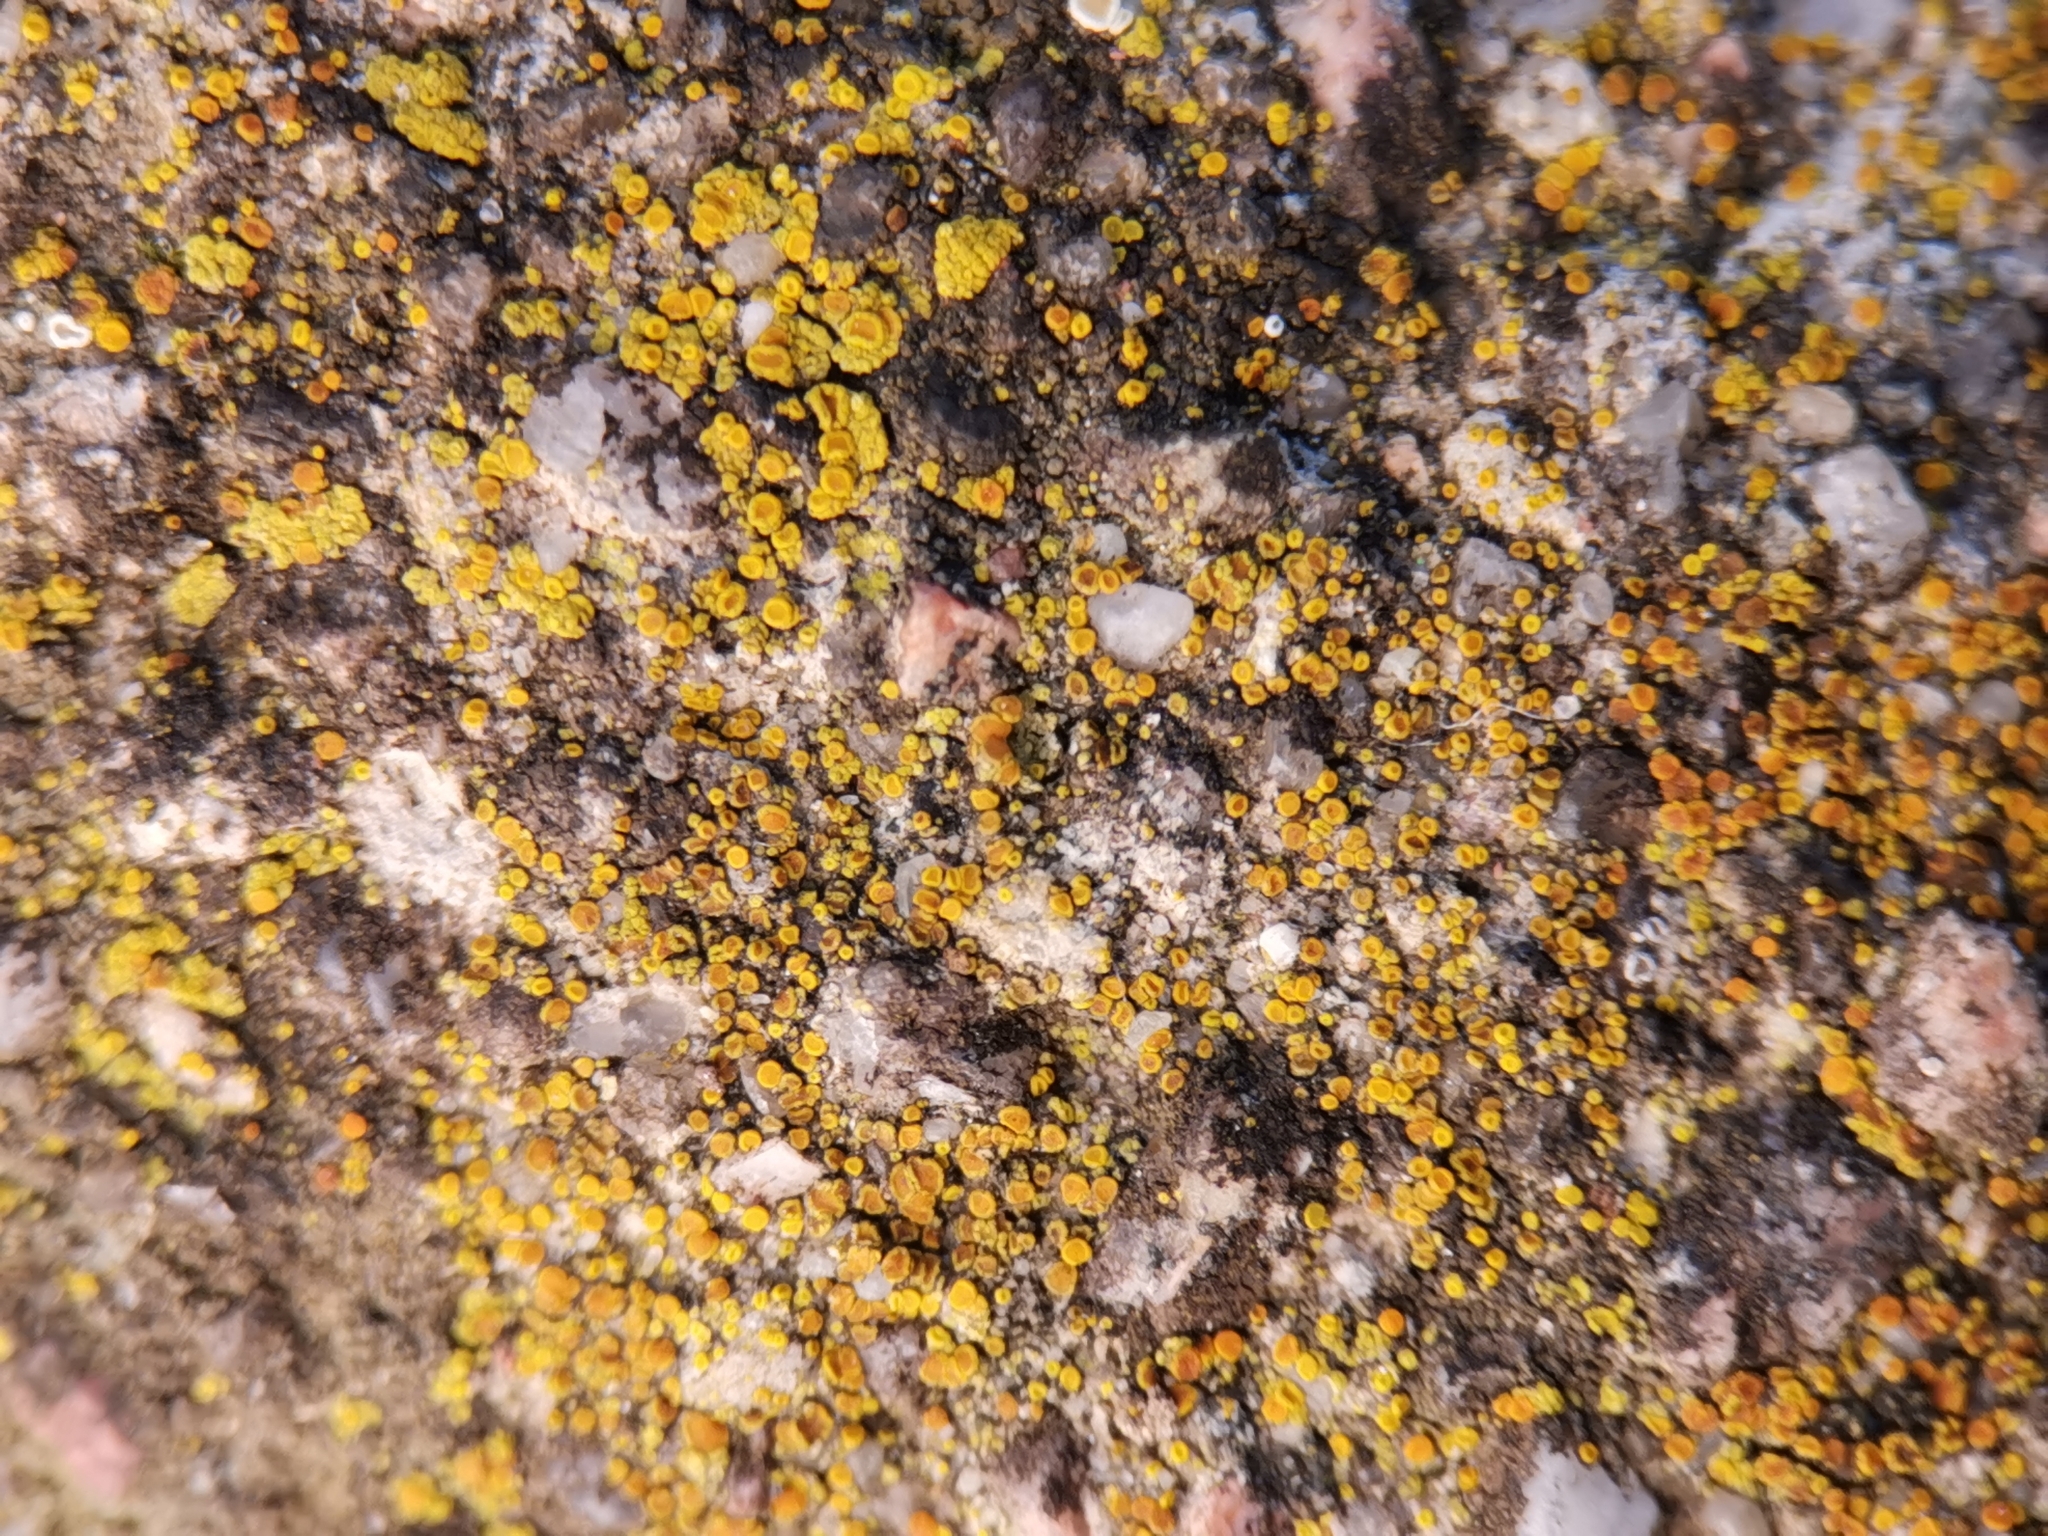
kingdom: Fungi
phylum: Ascomycota
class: Candelariomycetes
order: Candelariales
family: Candelariaceae
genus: Candelariella
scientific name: Candelariella vitellina
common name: Common goldspeck
